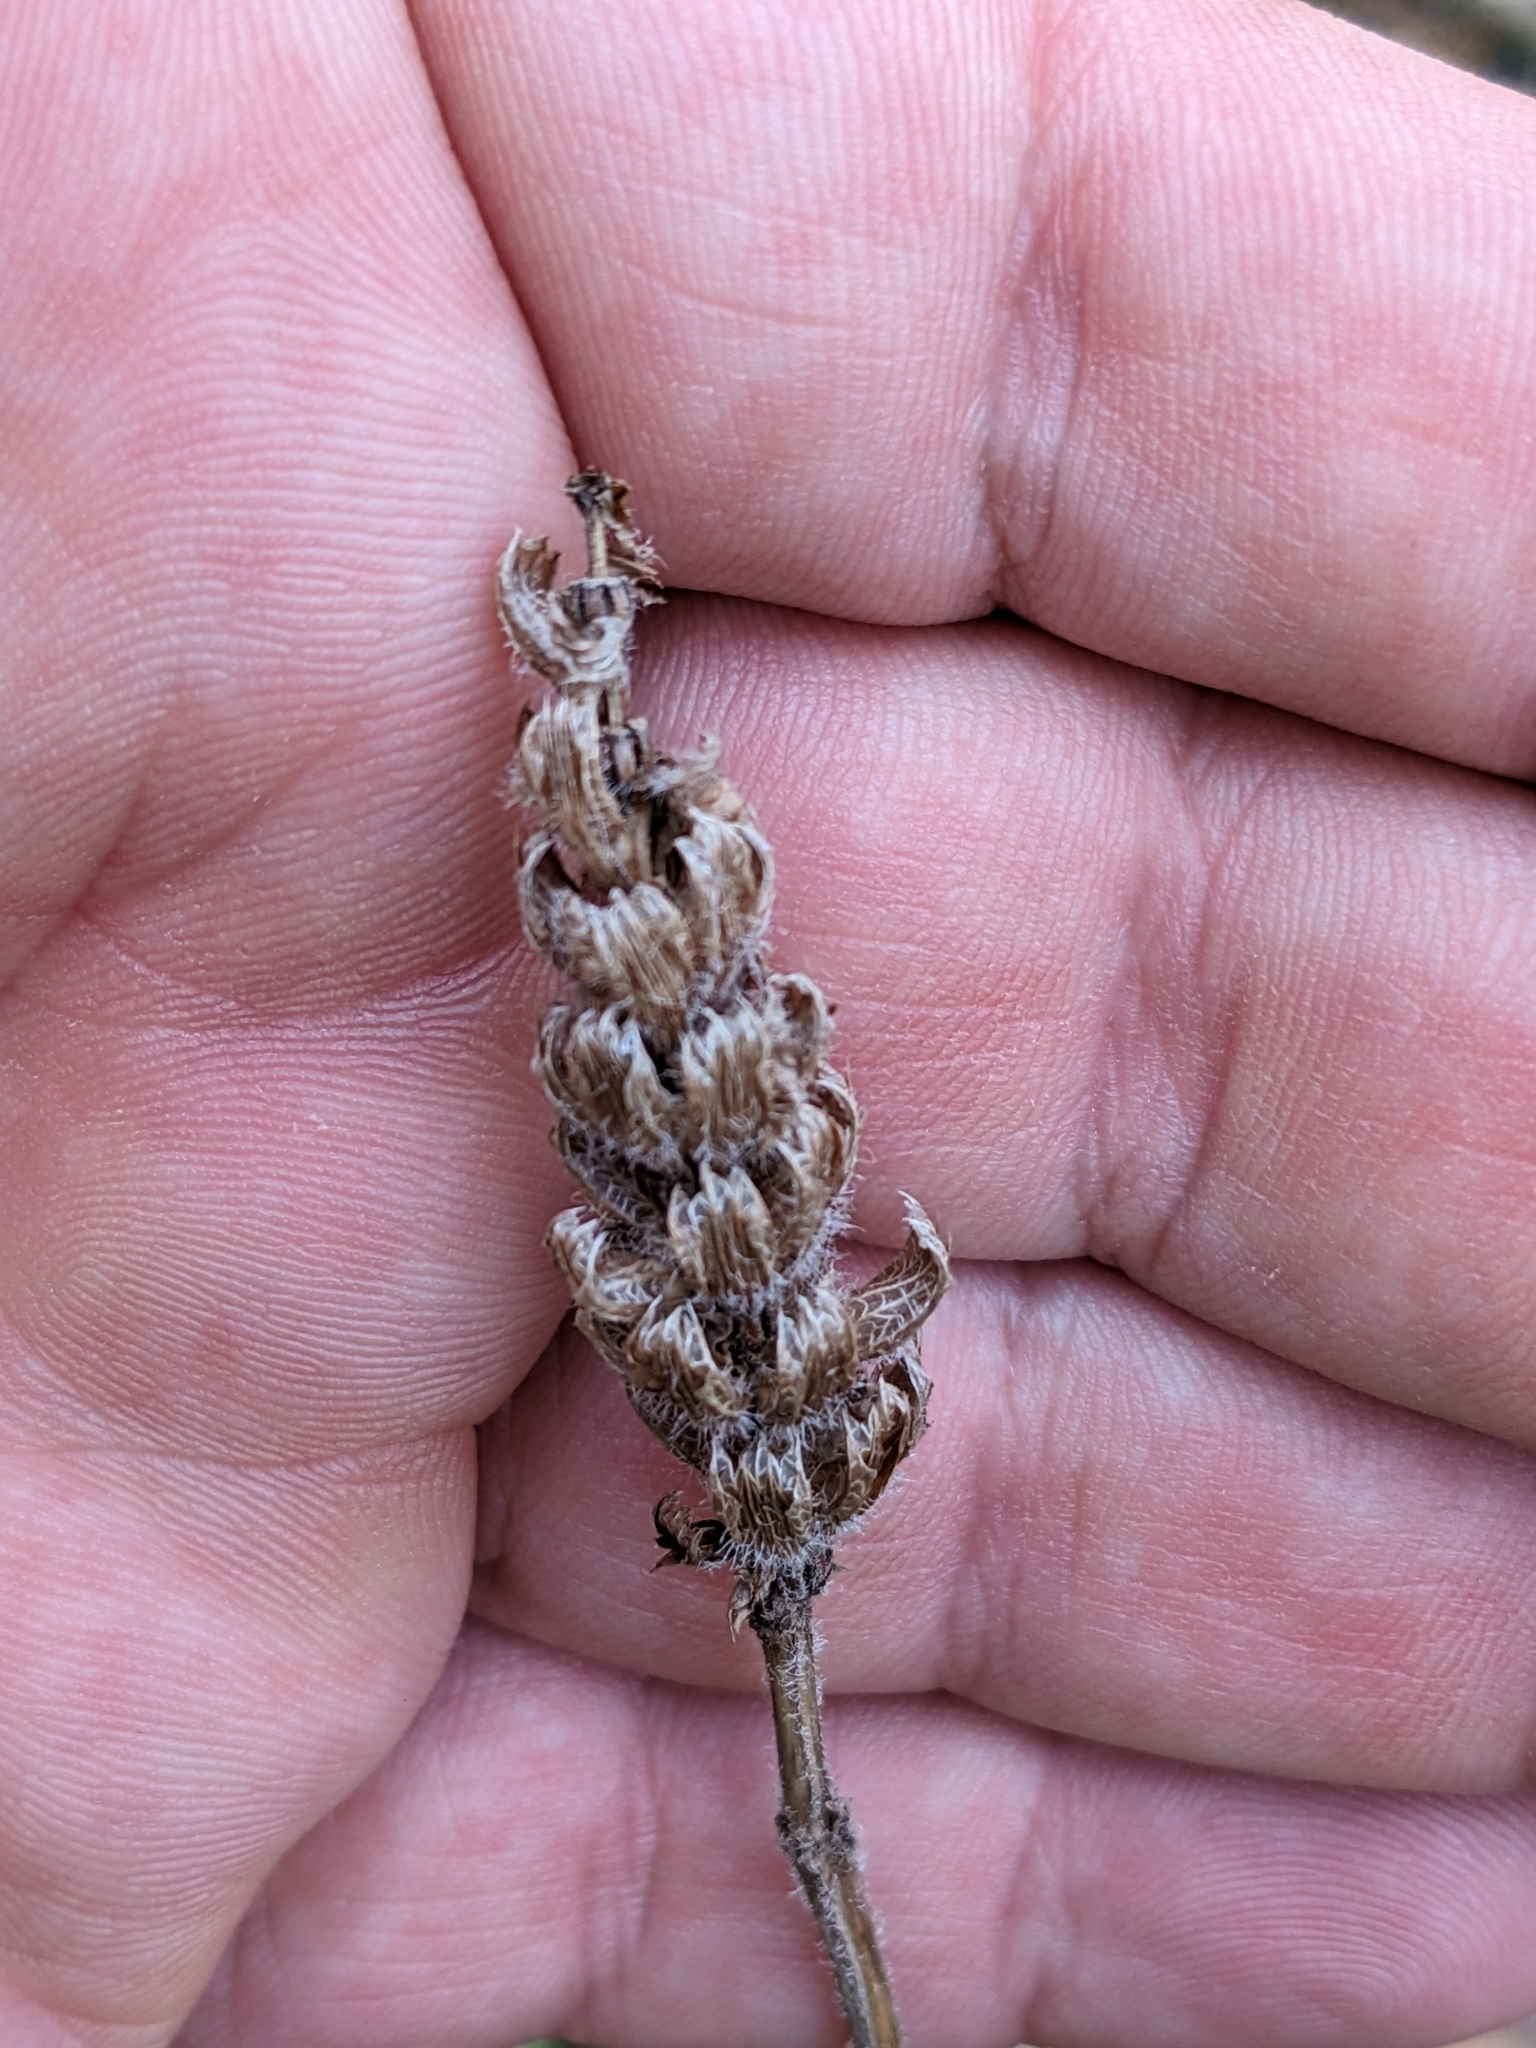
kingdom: Plantae
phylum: Tracheophyta
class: Magnoliopsida
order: Lamiales
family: Lamiaceae
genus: Prunella
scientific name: Prunella vulgaris
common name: Heal-all
